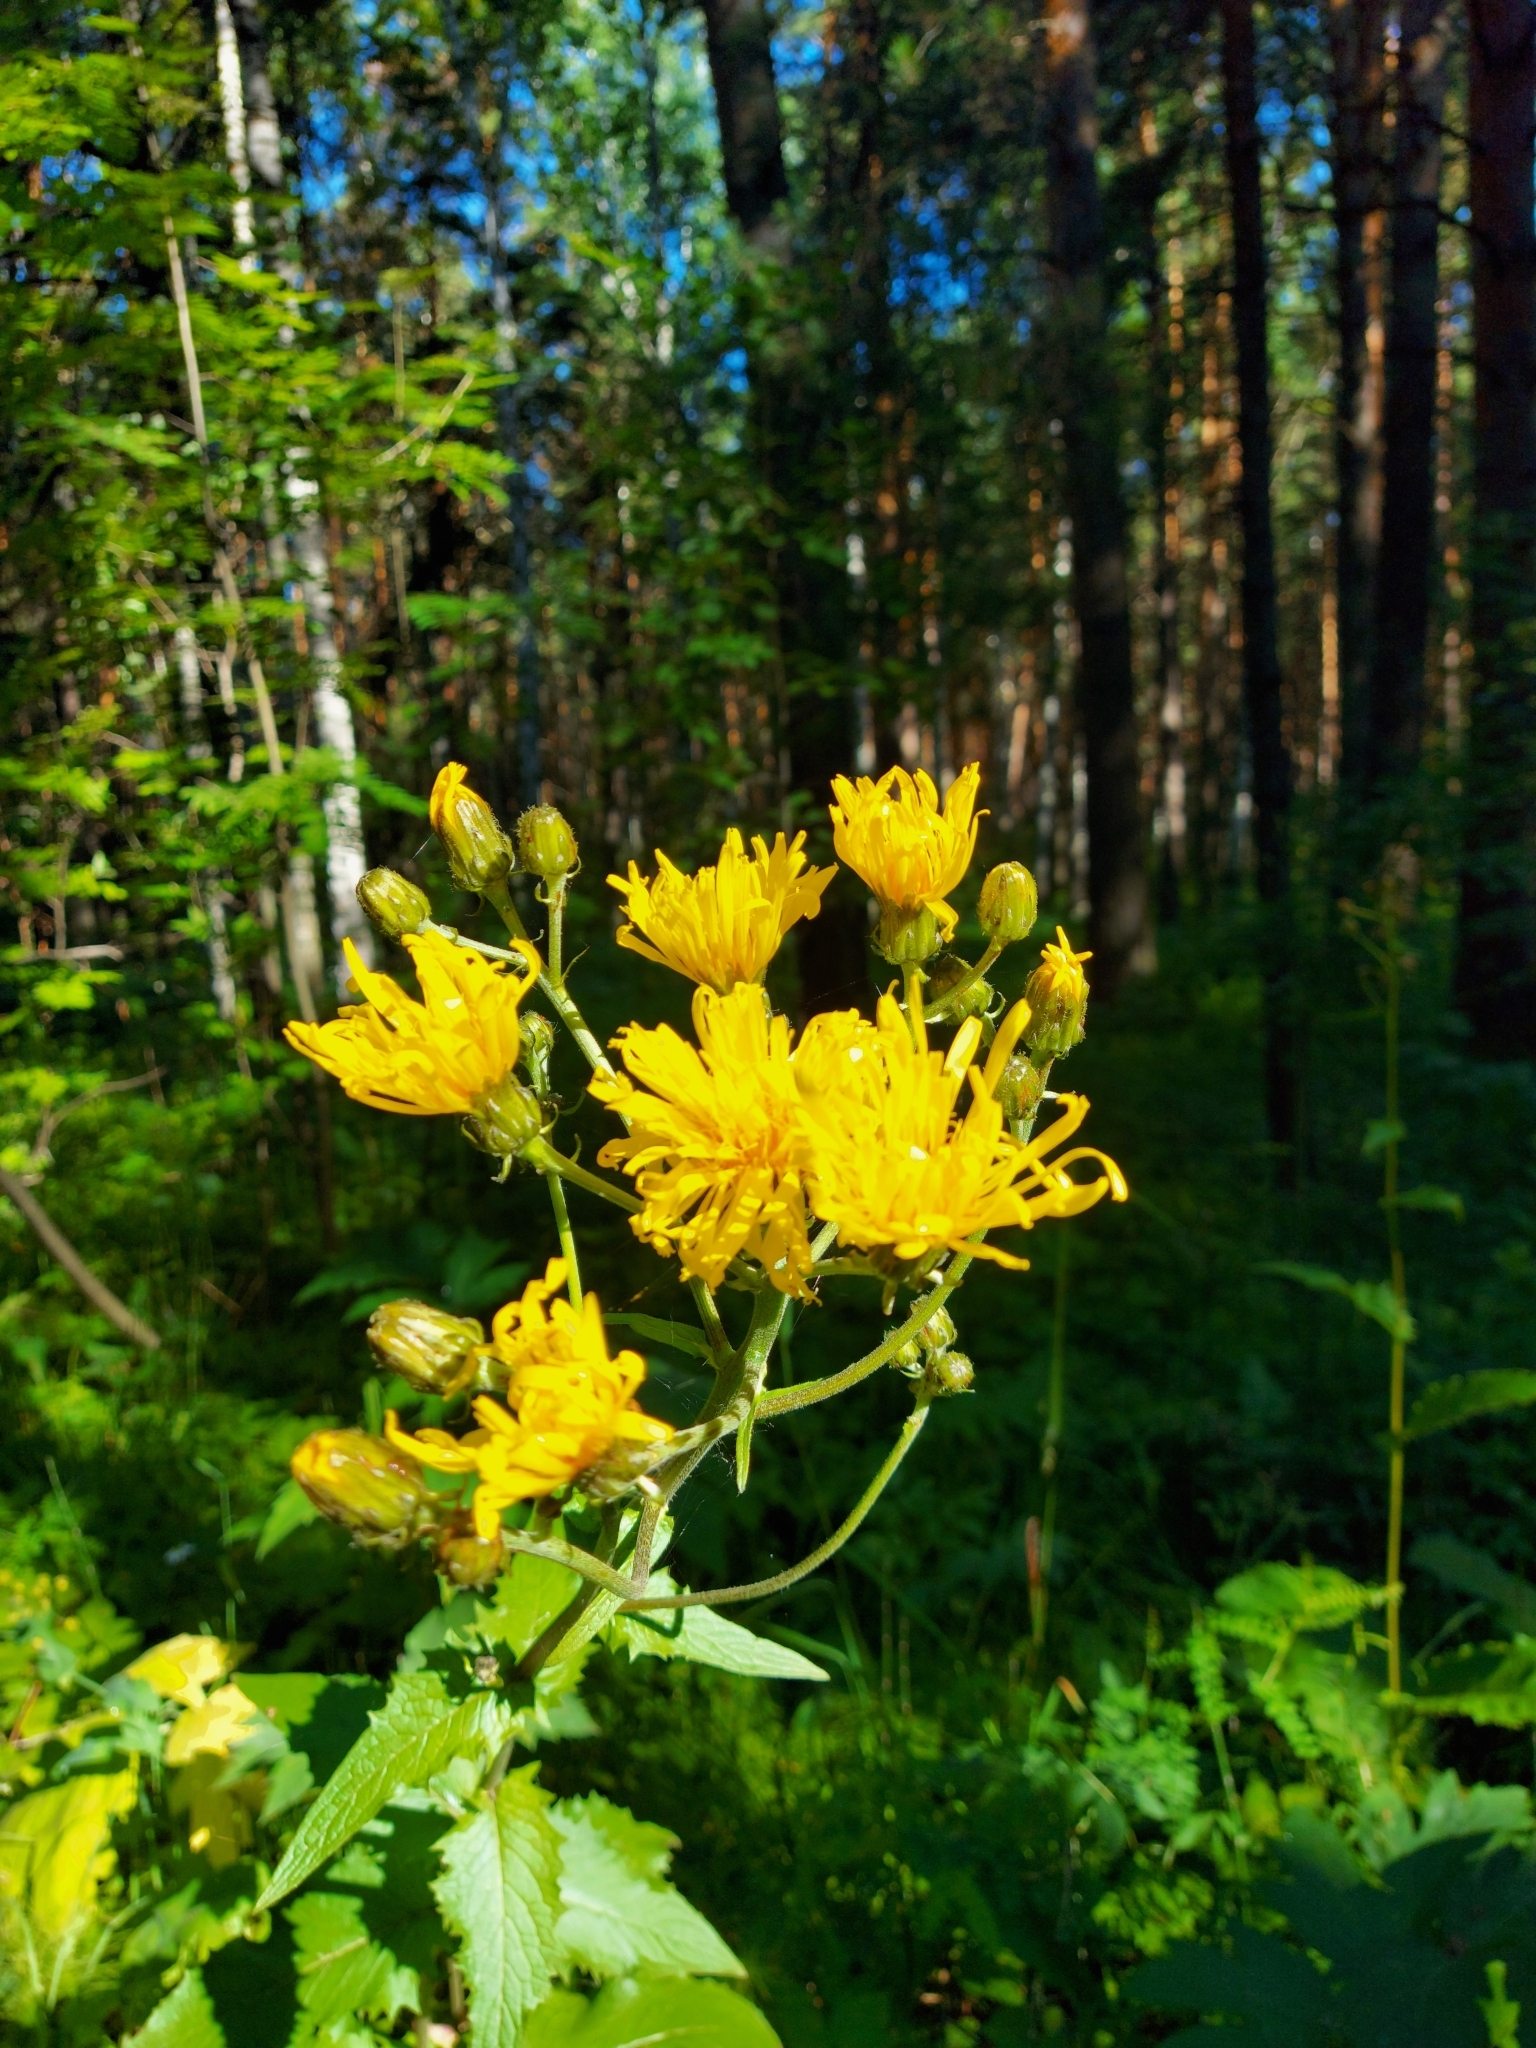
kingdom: Plantae
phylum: Tracheophyta
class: Magnoliopsida
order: Asterales
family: Asteraceae
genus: Crepis
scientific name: Crepis sibirica
